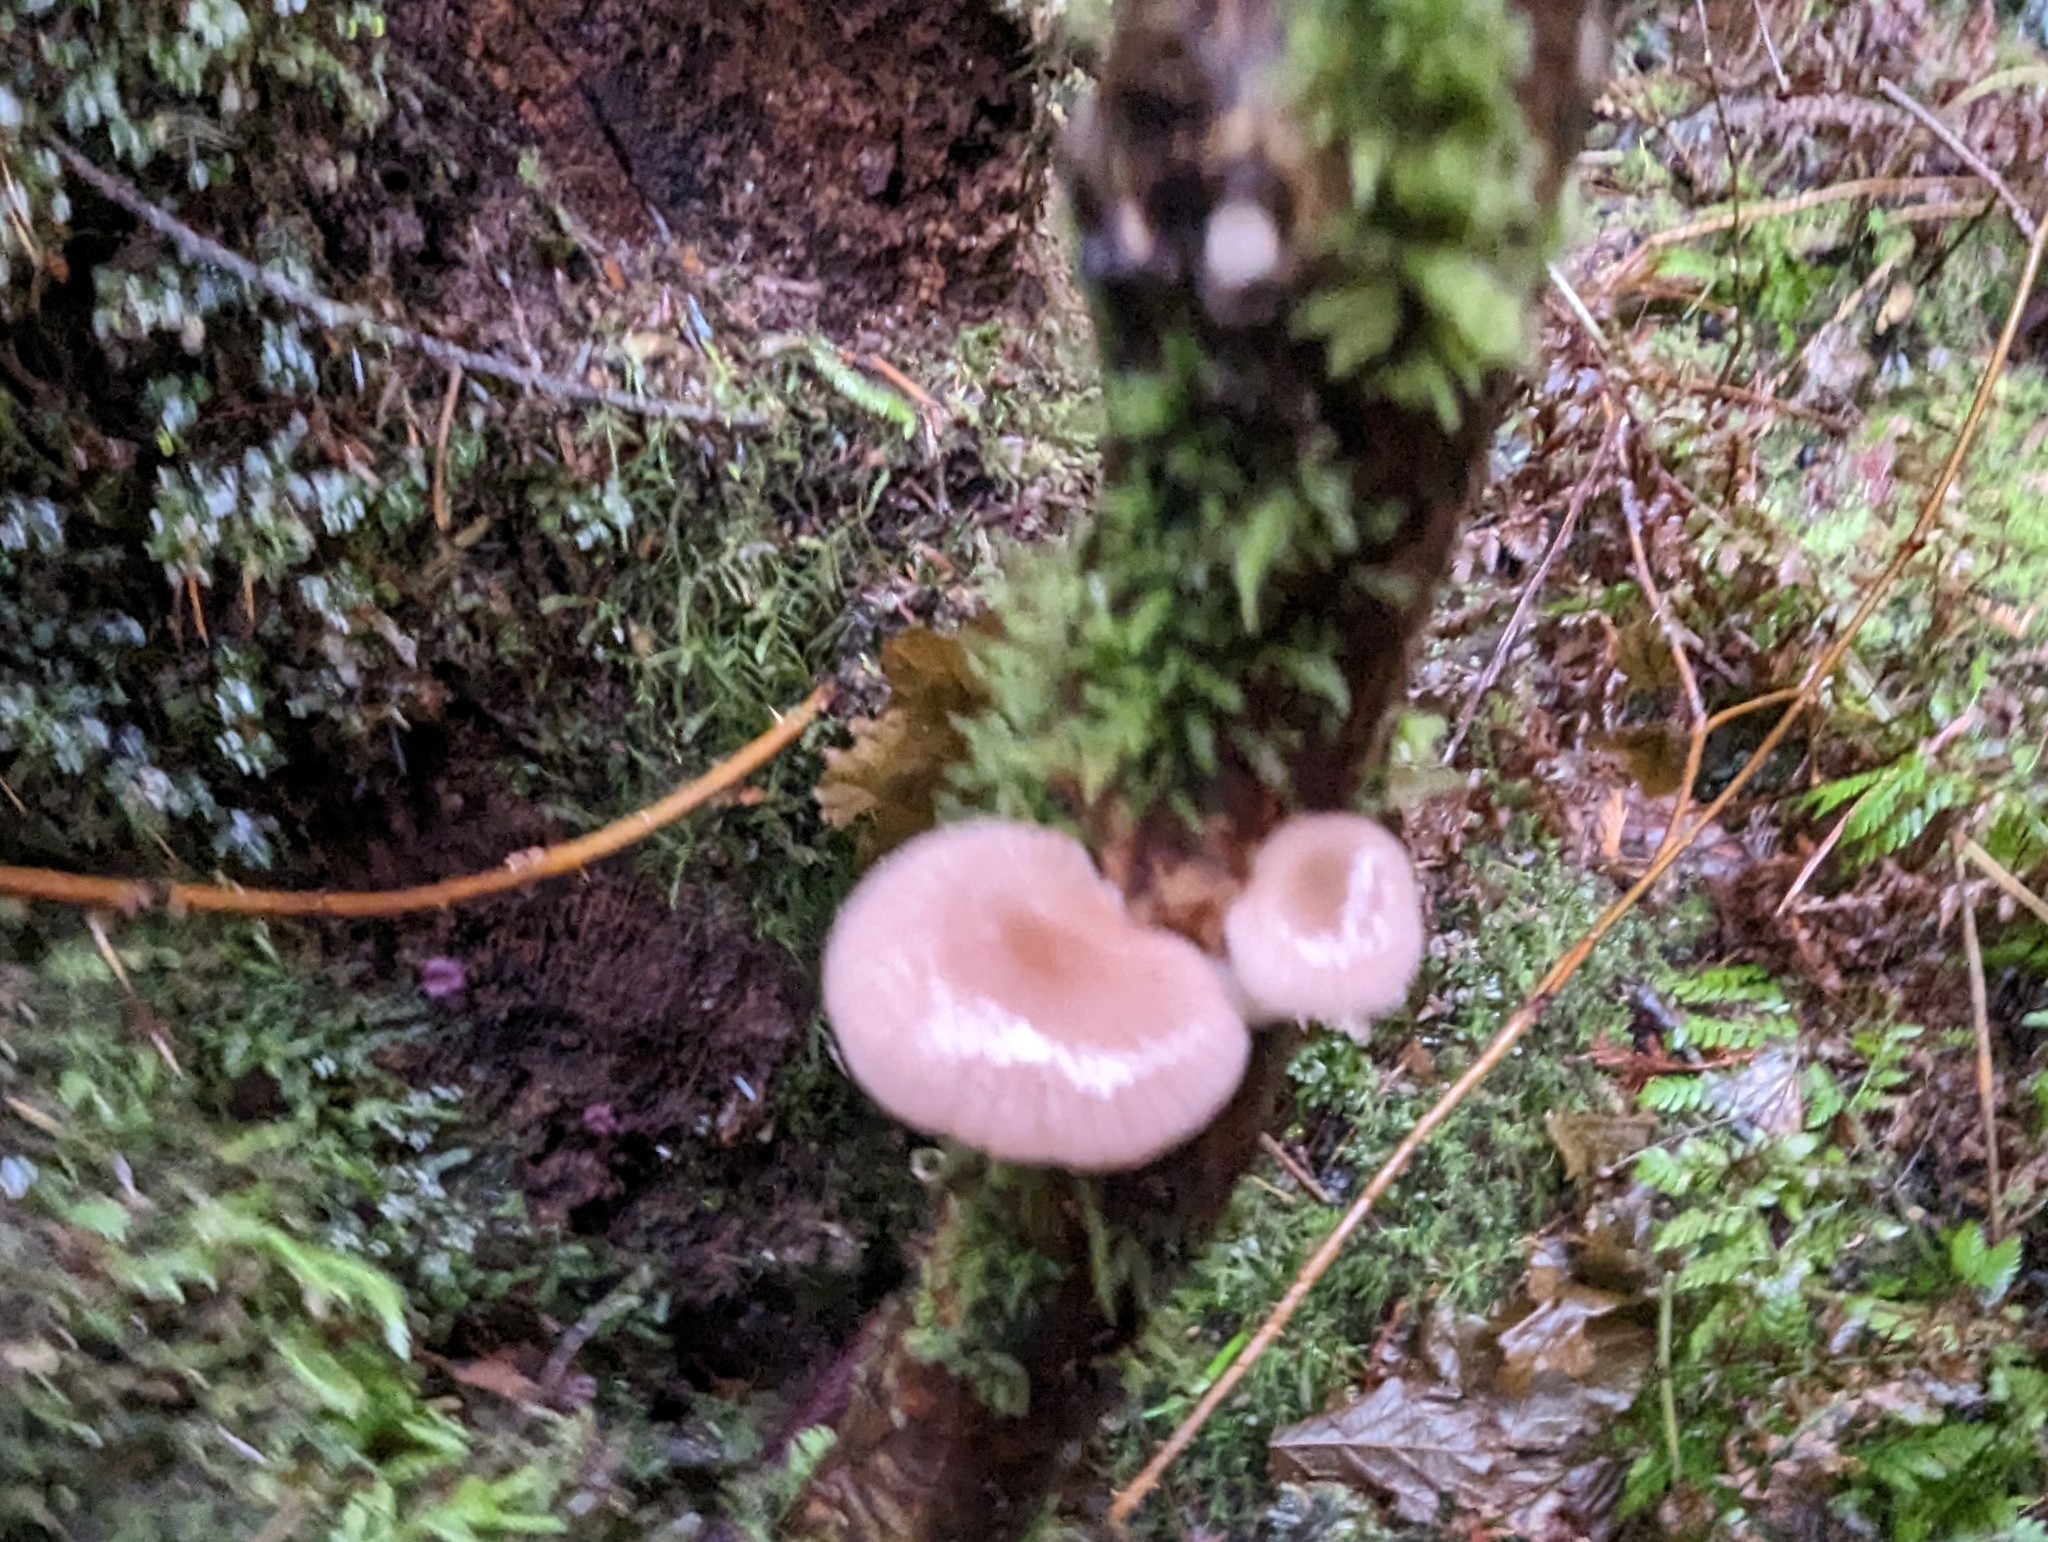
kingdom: Fungi
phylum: Basidiomycota
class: Agaricomycetes
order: Agaricales
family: Mycenaceae
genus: Panellus
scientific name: Panellus longinquus
